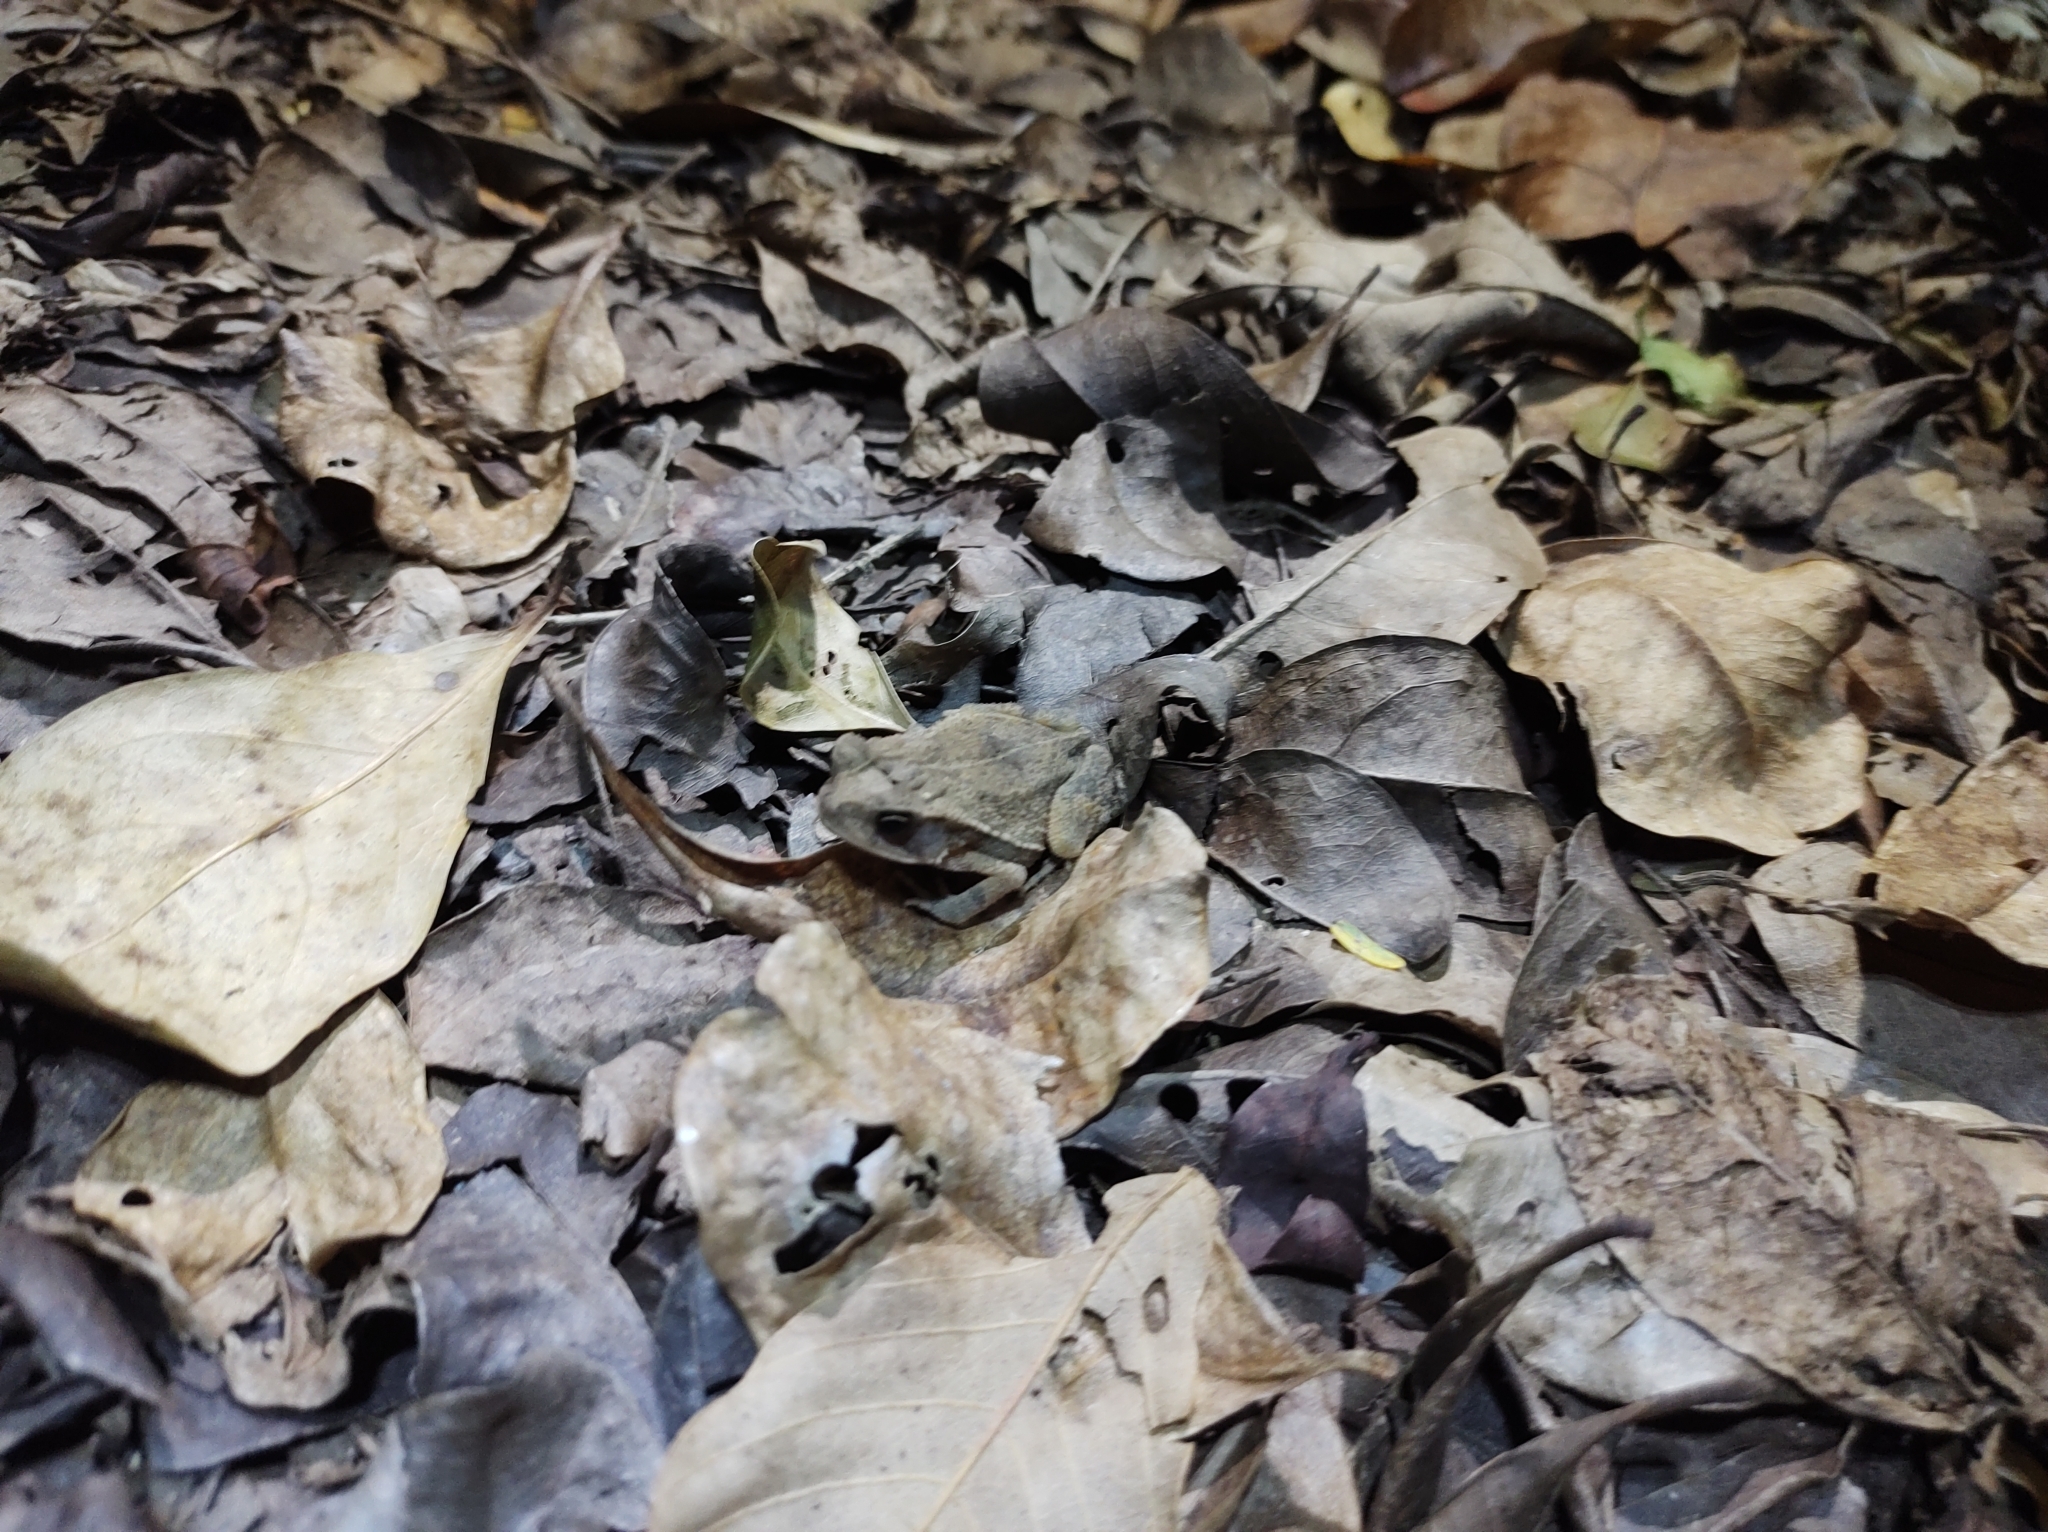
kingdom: Animalia
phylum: Chordata
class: Amphibia
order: Anura
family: Bufonidae
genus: Incilius
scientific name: Incilius valliceps
